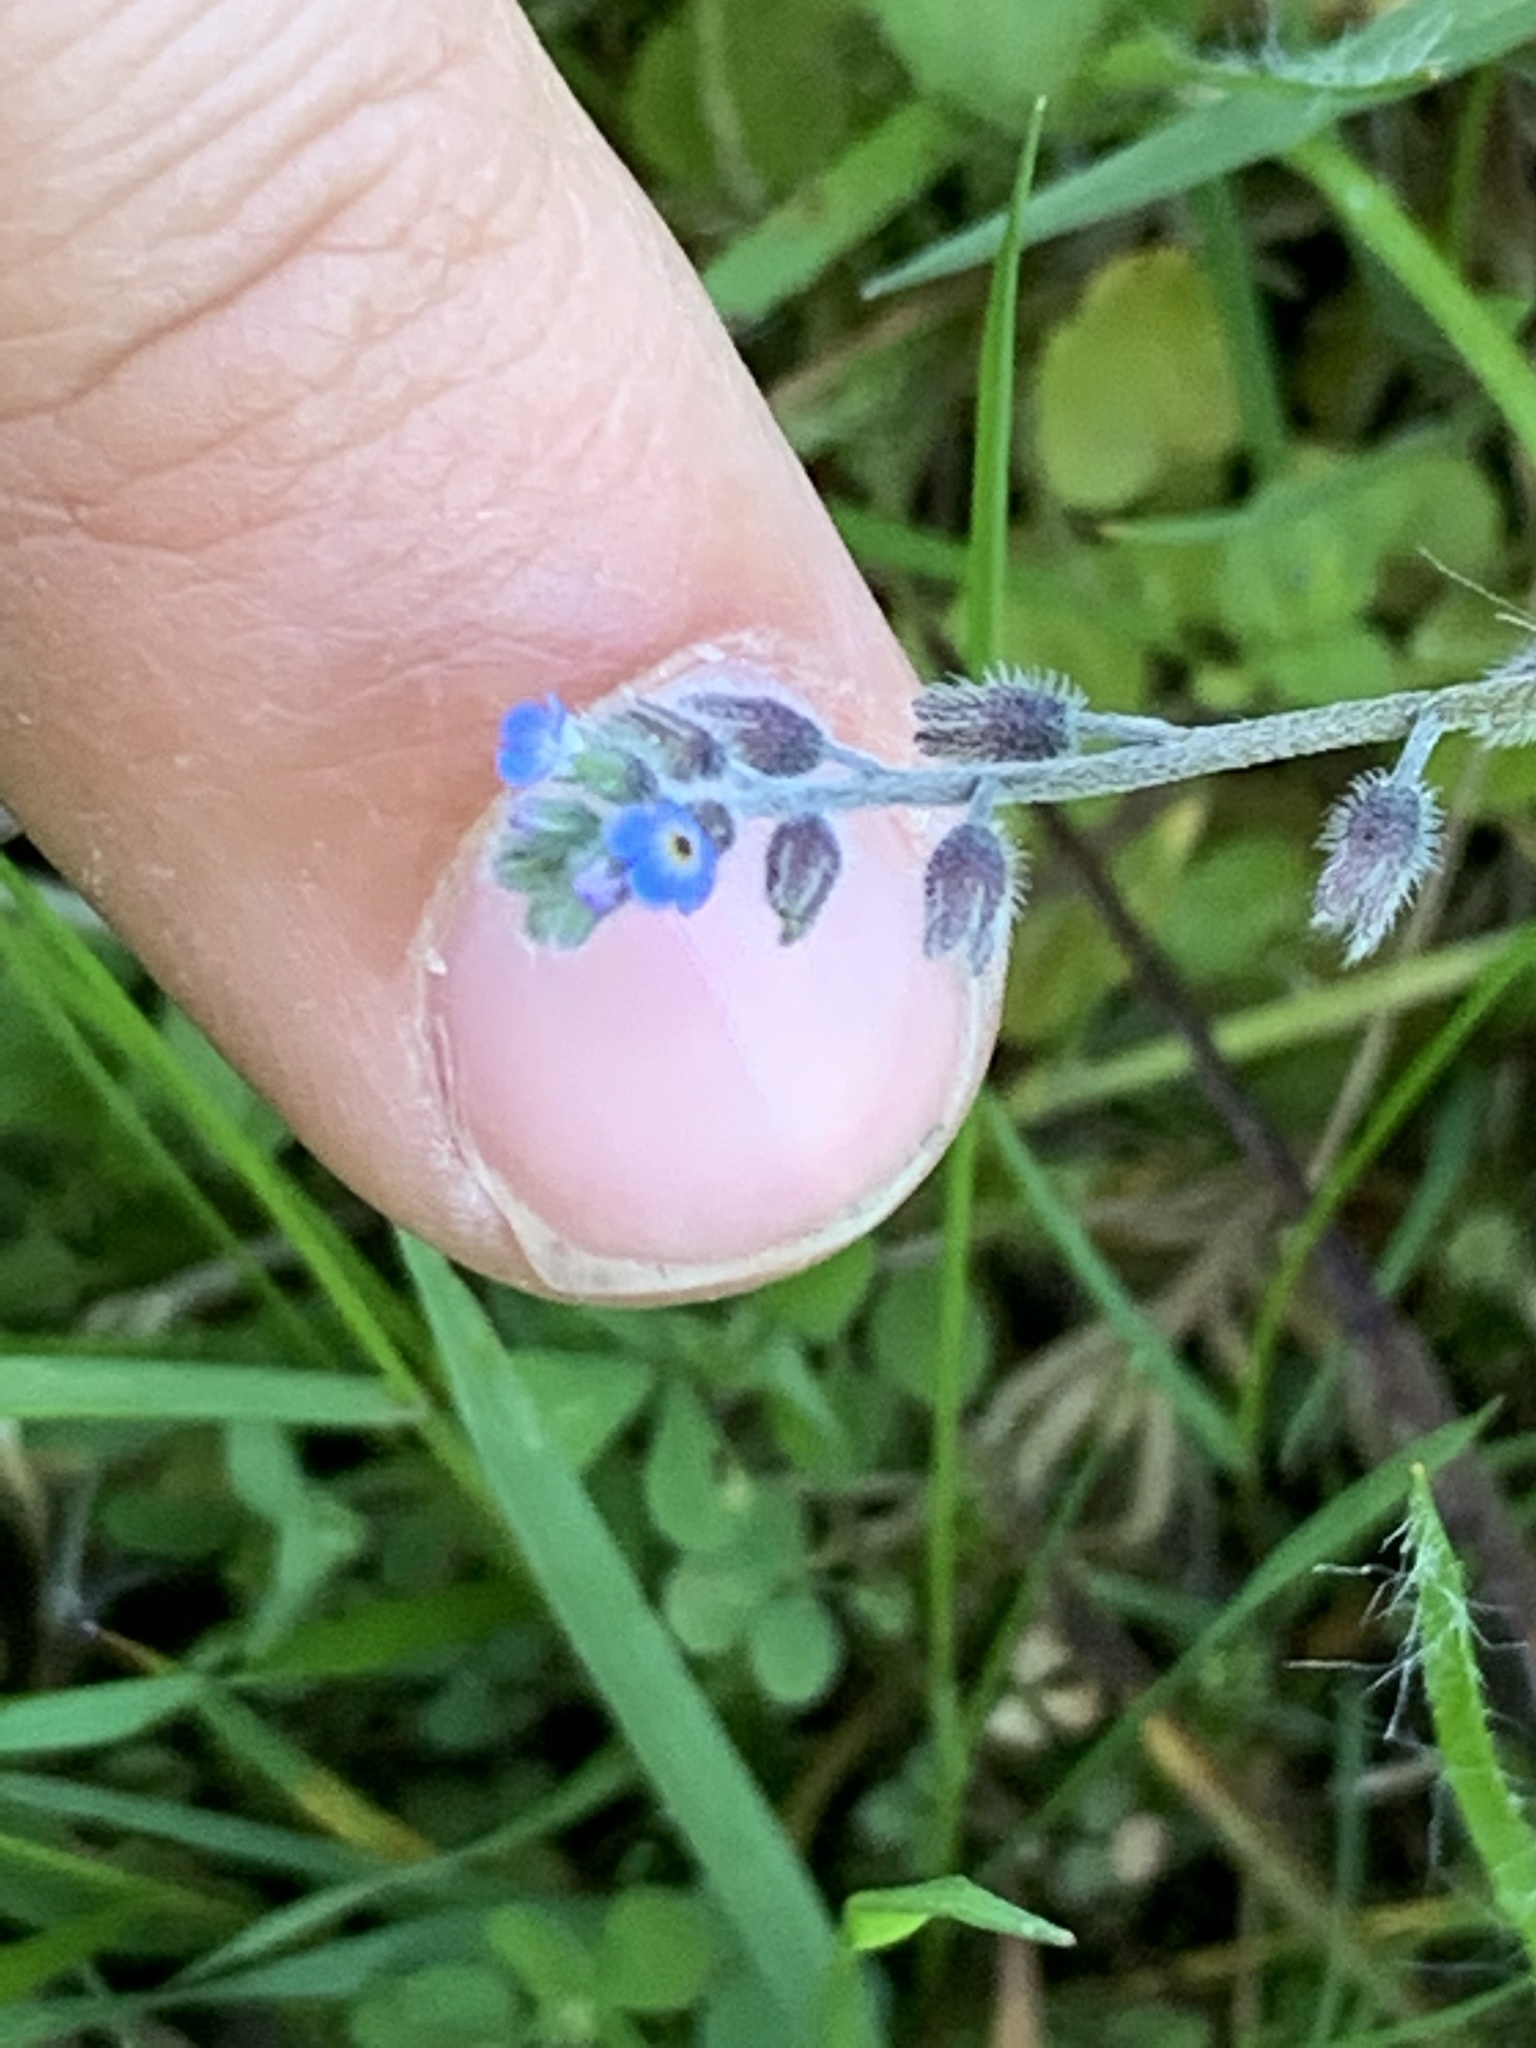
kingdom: Plantae
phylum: Tracheophyta
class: Magnoliopsida
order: Boraginales
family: Boraginaceae
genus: Myosotis
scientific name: Myosotis ramosissima
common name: Early forget-me-not
